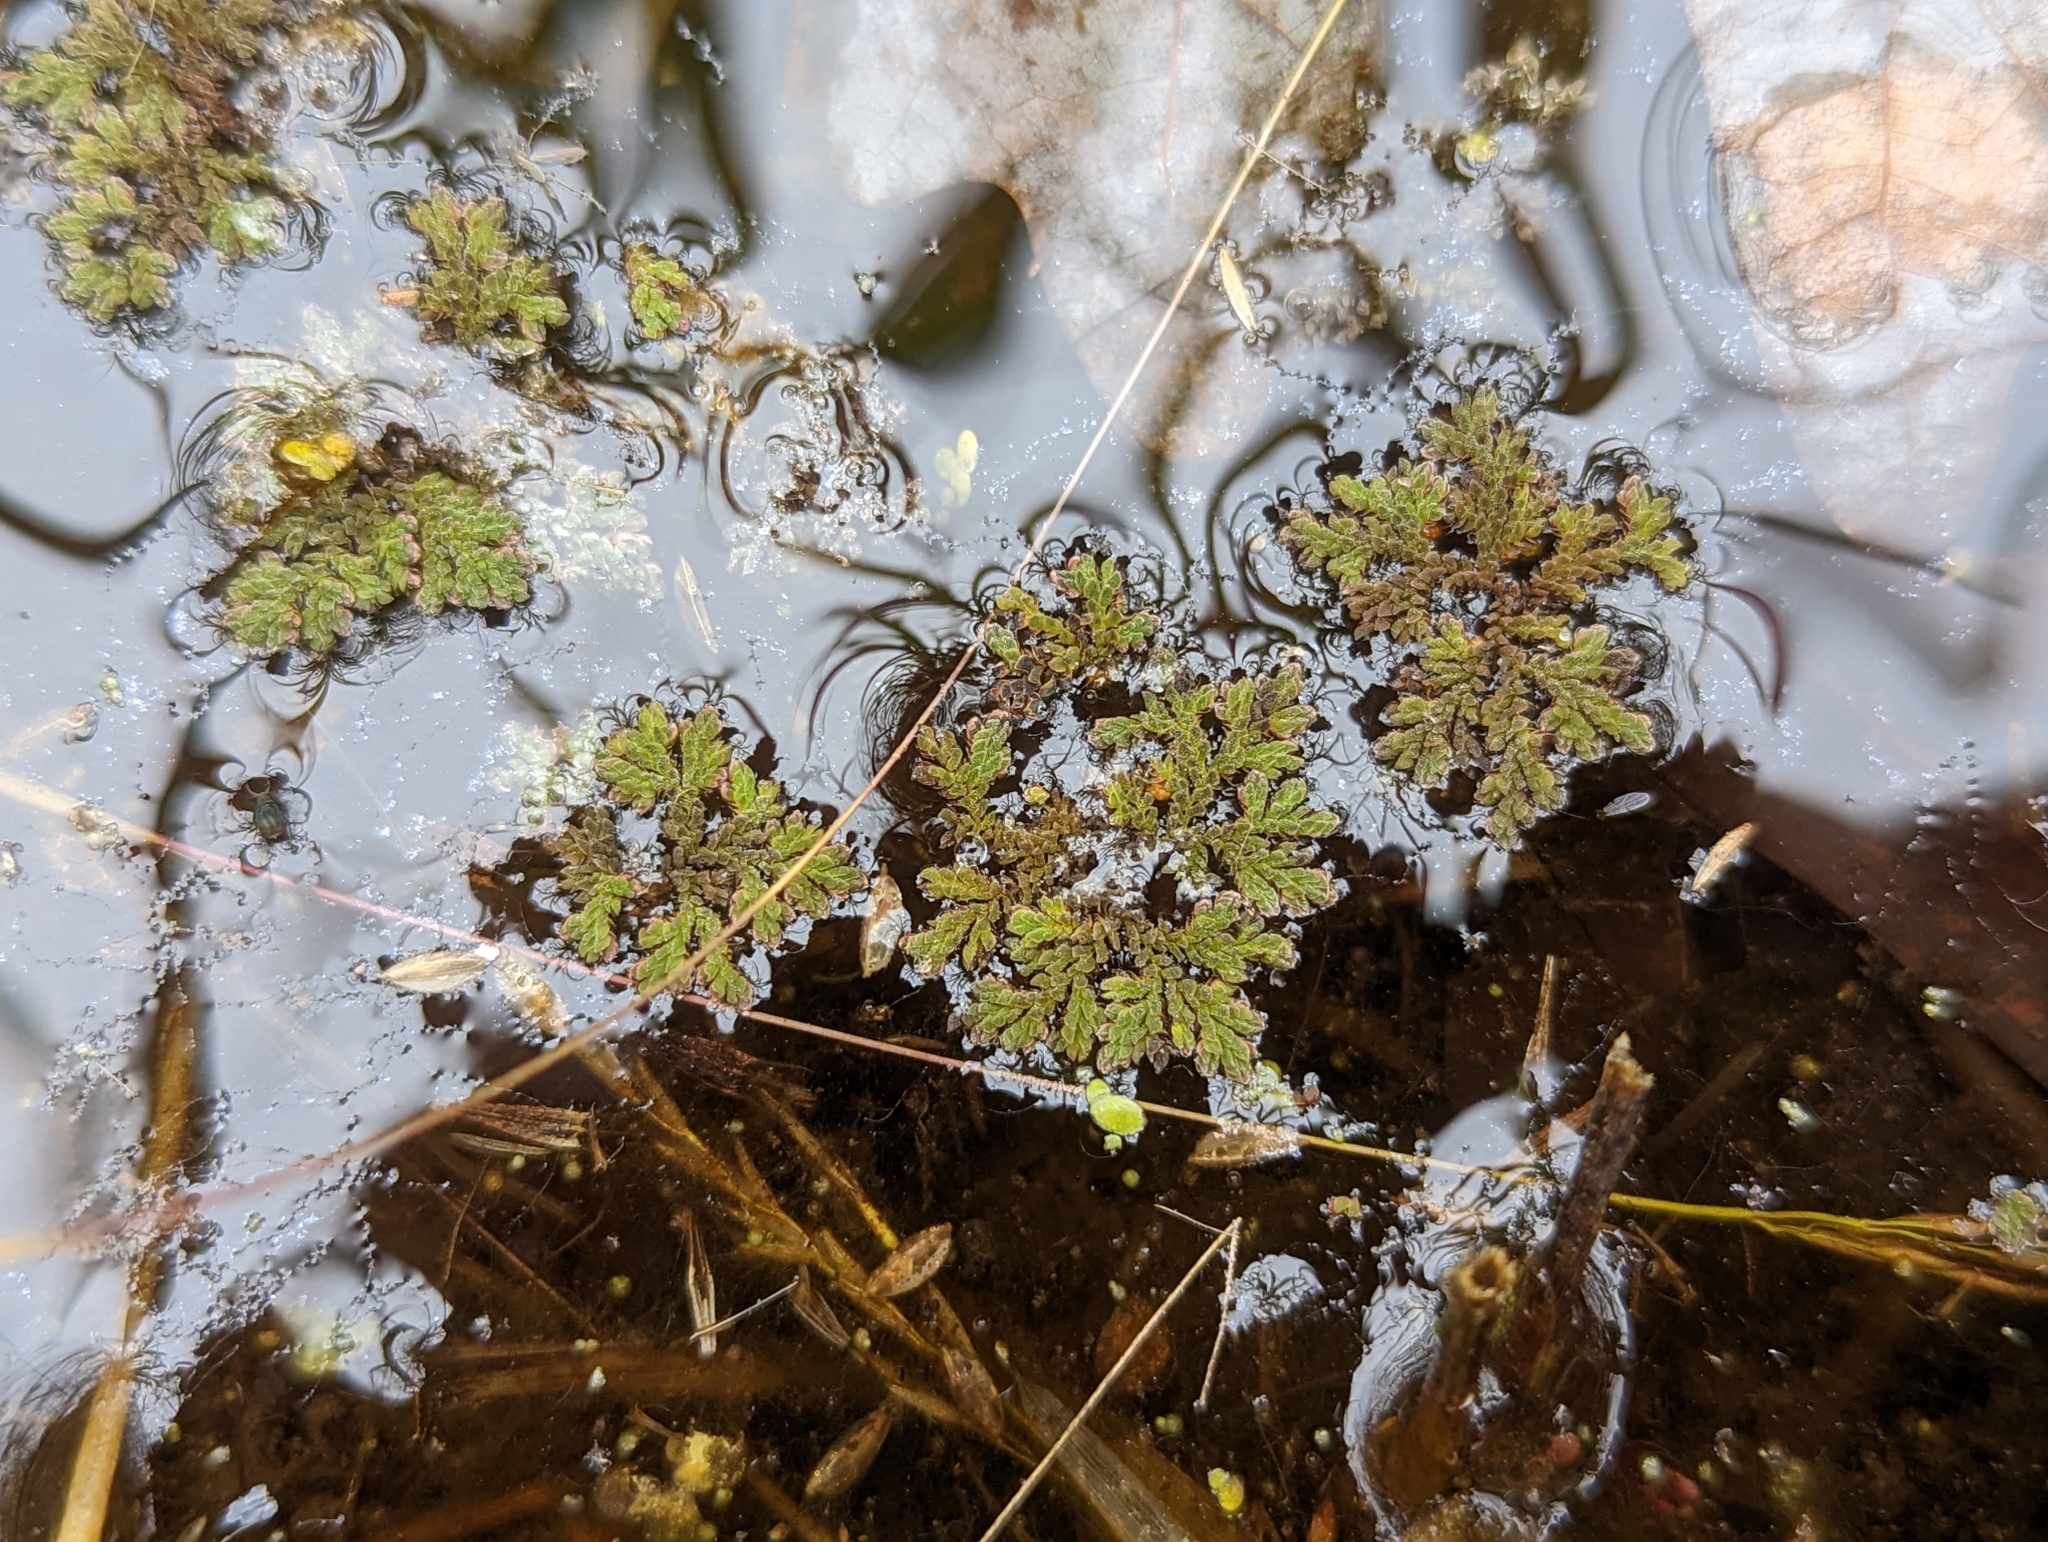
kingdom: Plantae
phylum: Tracheophyta
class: Polypodiopsida
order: Salviniales
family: Salviniaceae
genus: Azolla
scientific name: Azolla caroliniana
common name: Carolina mosquitofern
